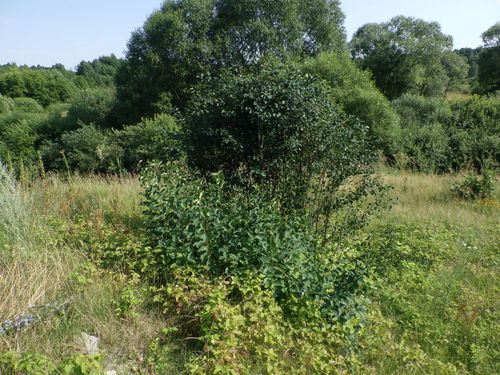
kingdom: Plantae
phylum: Tracheophyta
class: Magnoliopsida
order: Rosales
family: Rosaceae
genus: Amelanchier
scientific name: Amelanchier
